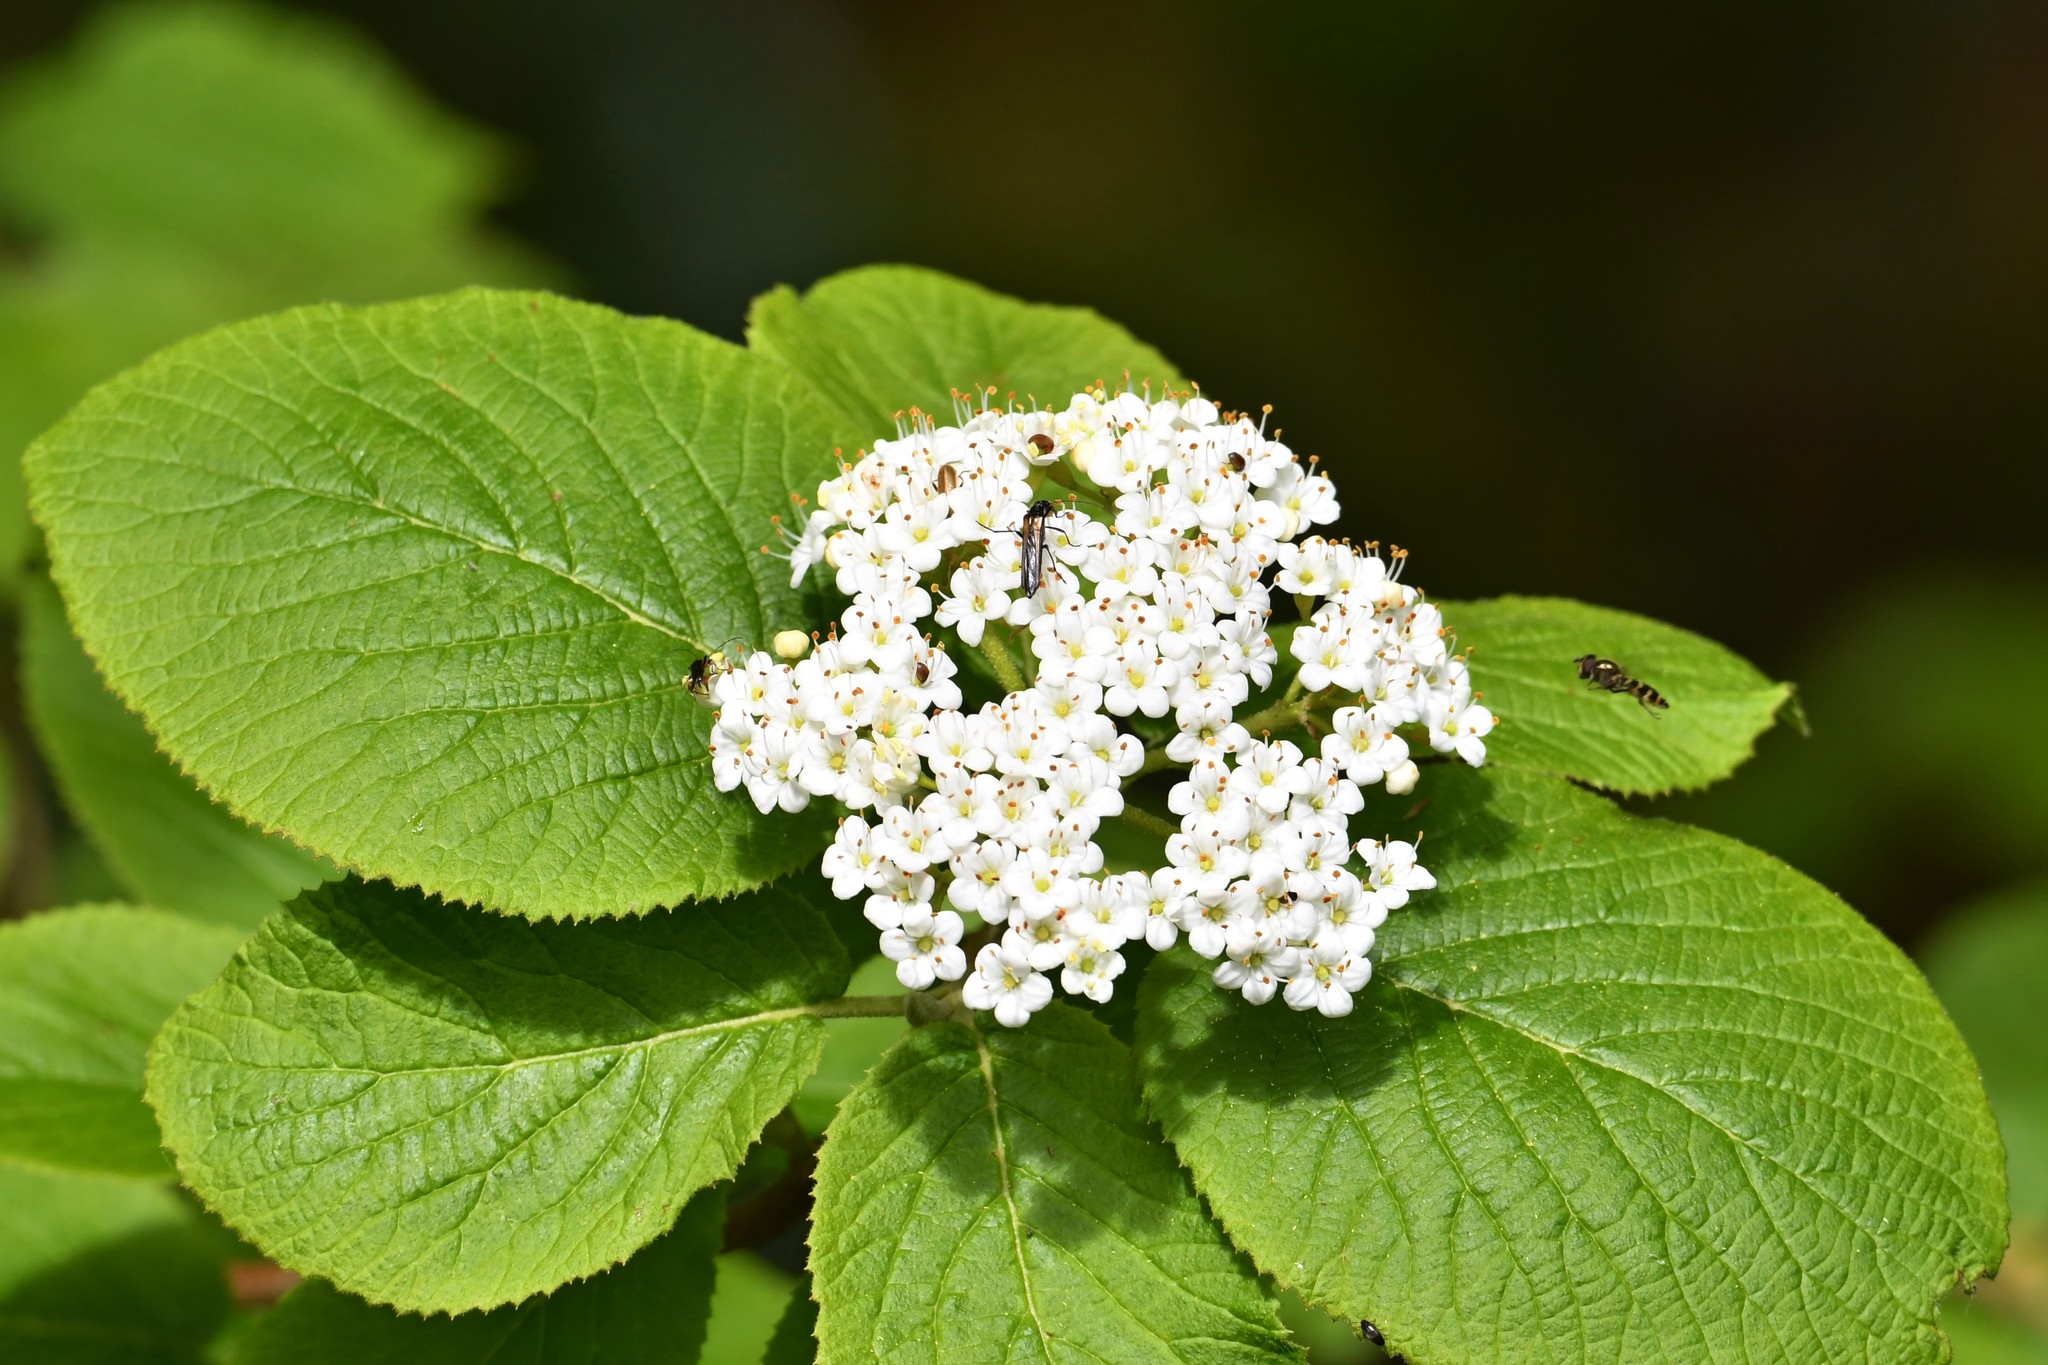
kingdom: Plantae
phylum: Tracheophyta
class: Magnoliopsida
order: Dipsacales
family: Viburnaceae
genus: Viburnum
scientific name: Viburnum lantana
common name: Wayfaring tree
